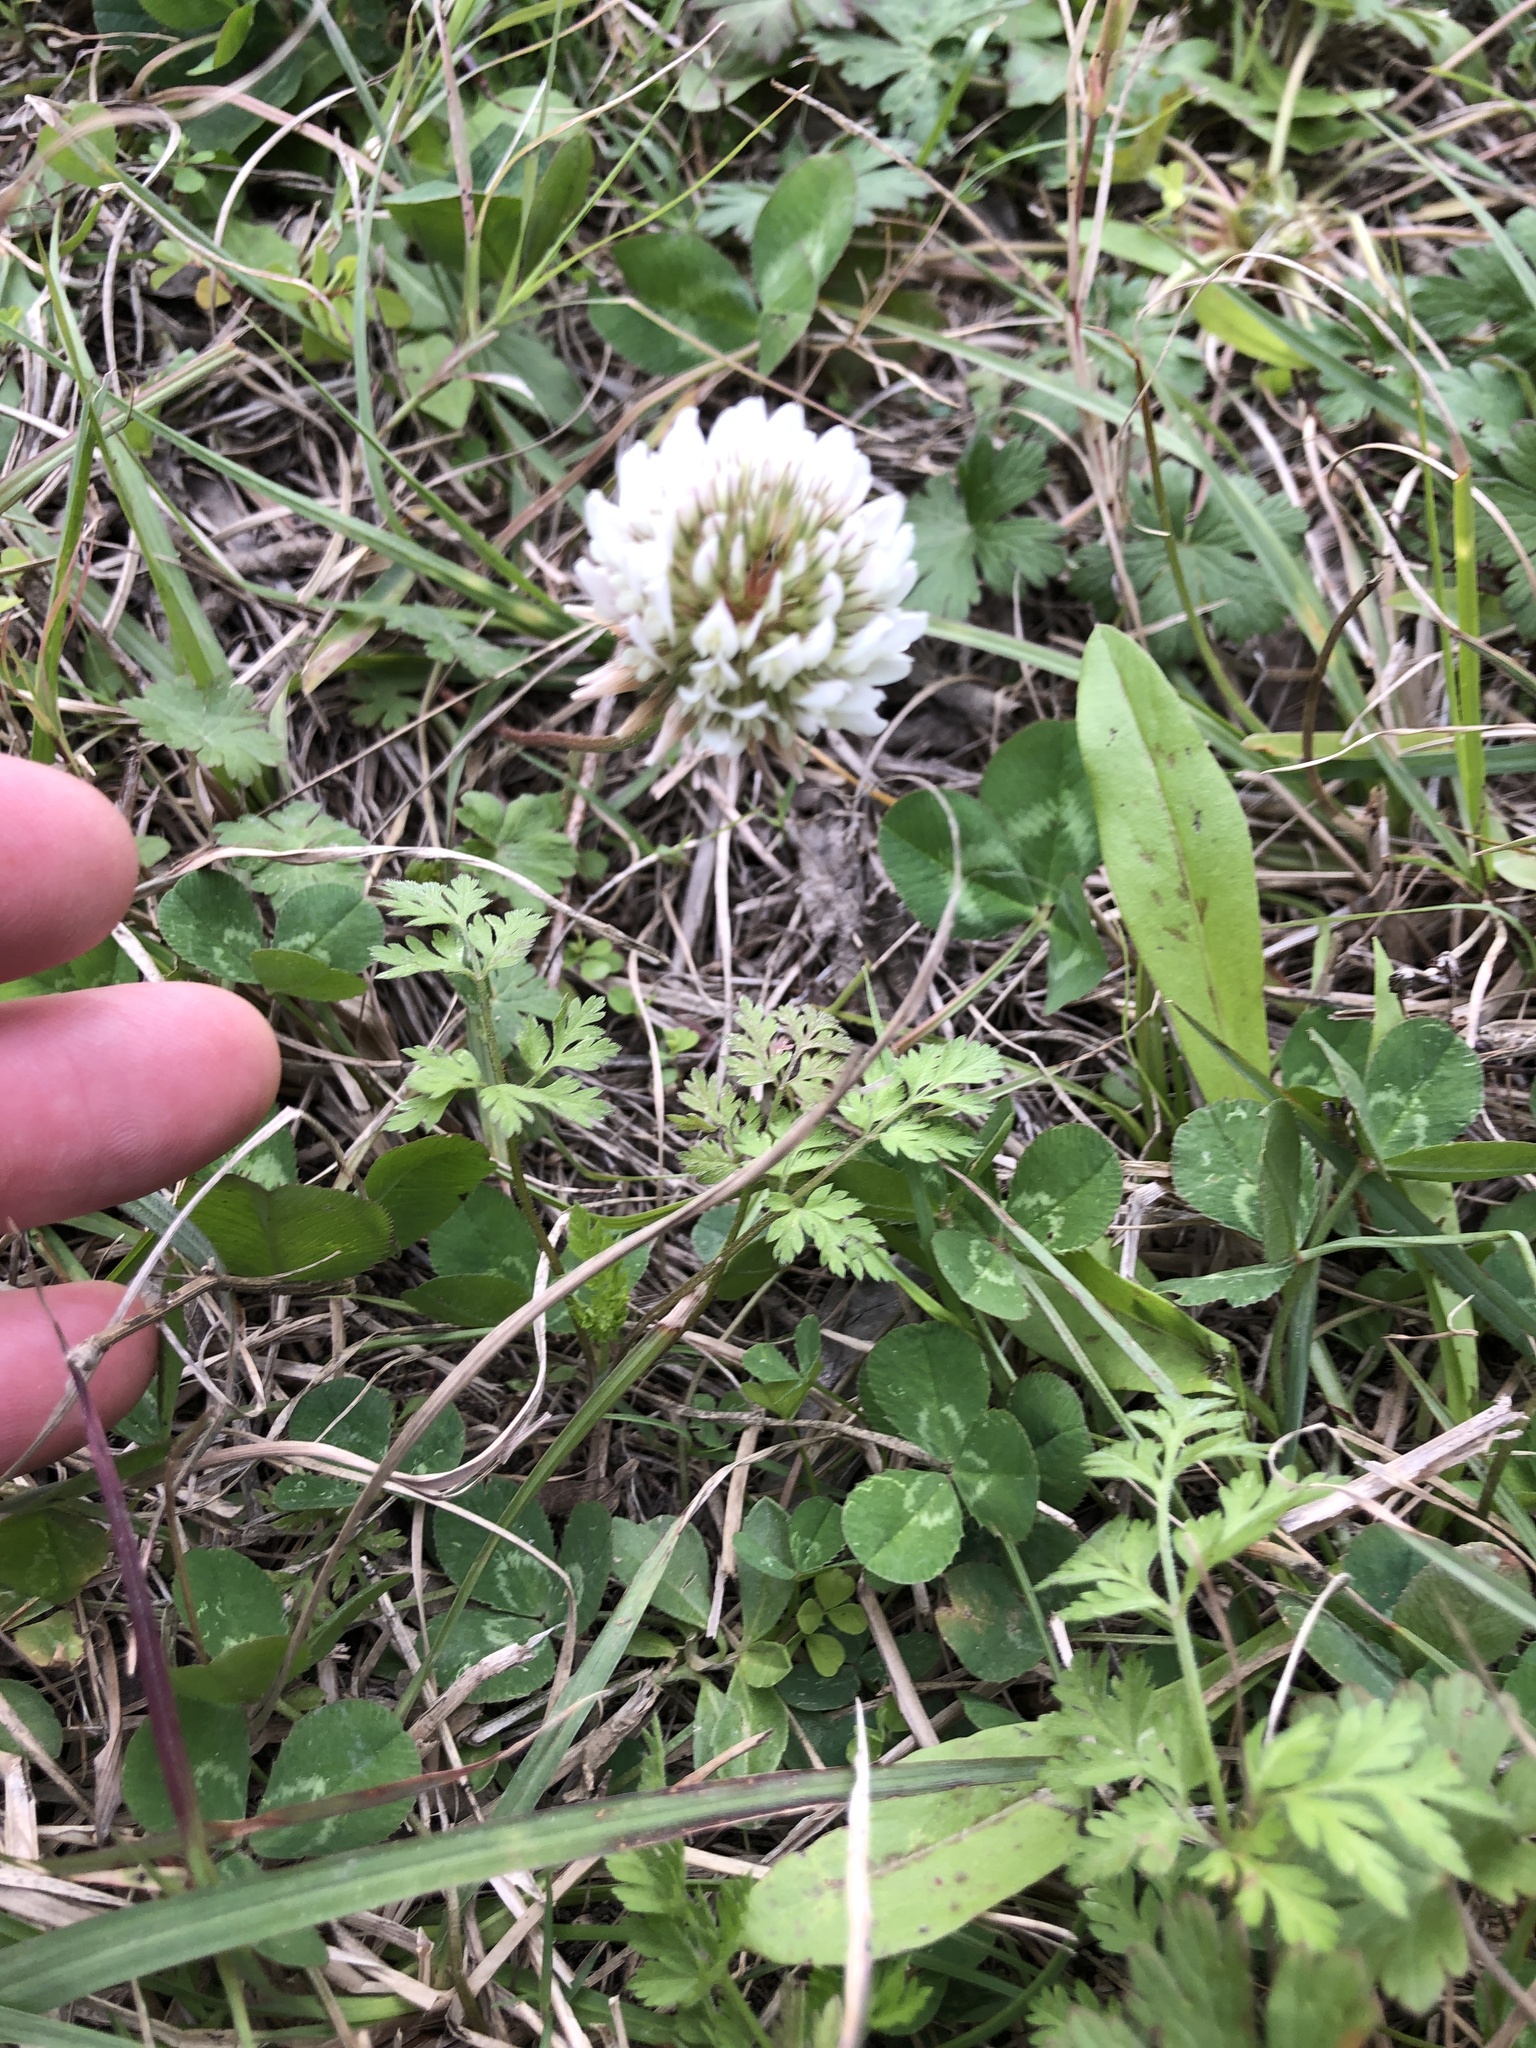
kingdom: Plantae
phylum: Tracheophyta
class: Magnoliopsida
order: Fabales
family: Fabaceae
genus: Trifolium
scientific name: Trifolium repens
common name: White clover
